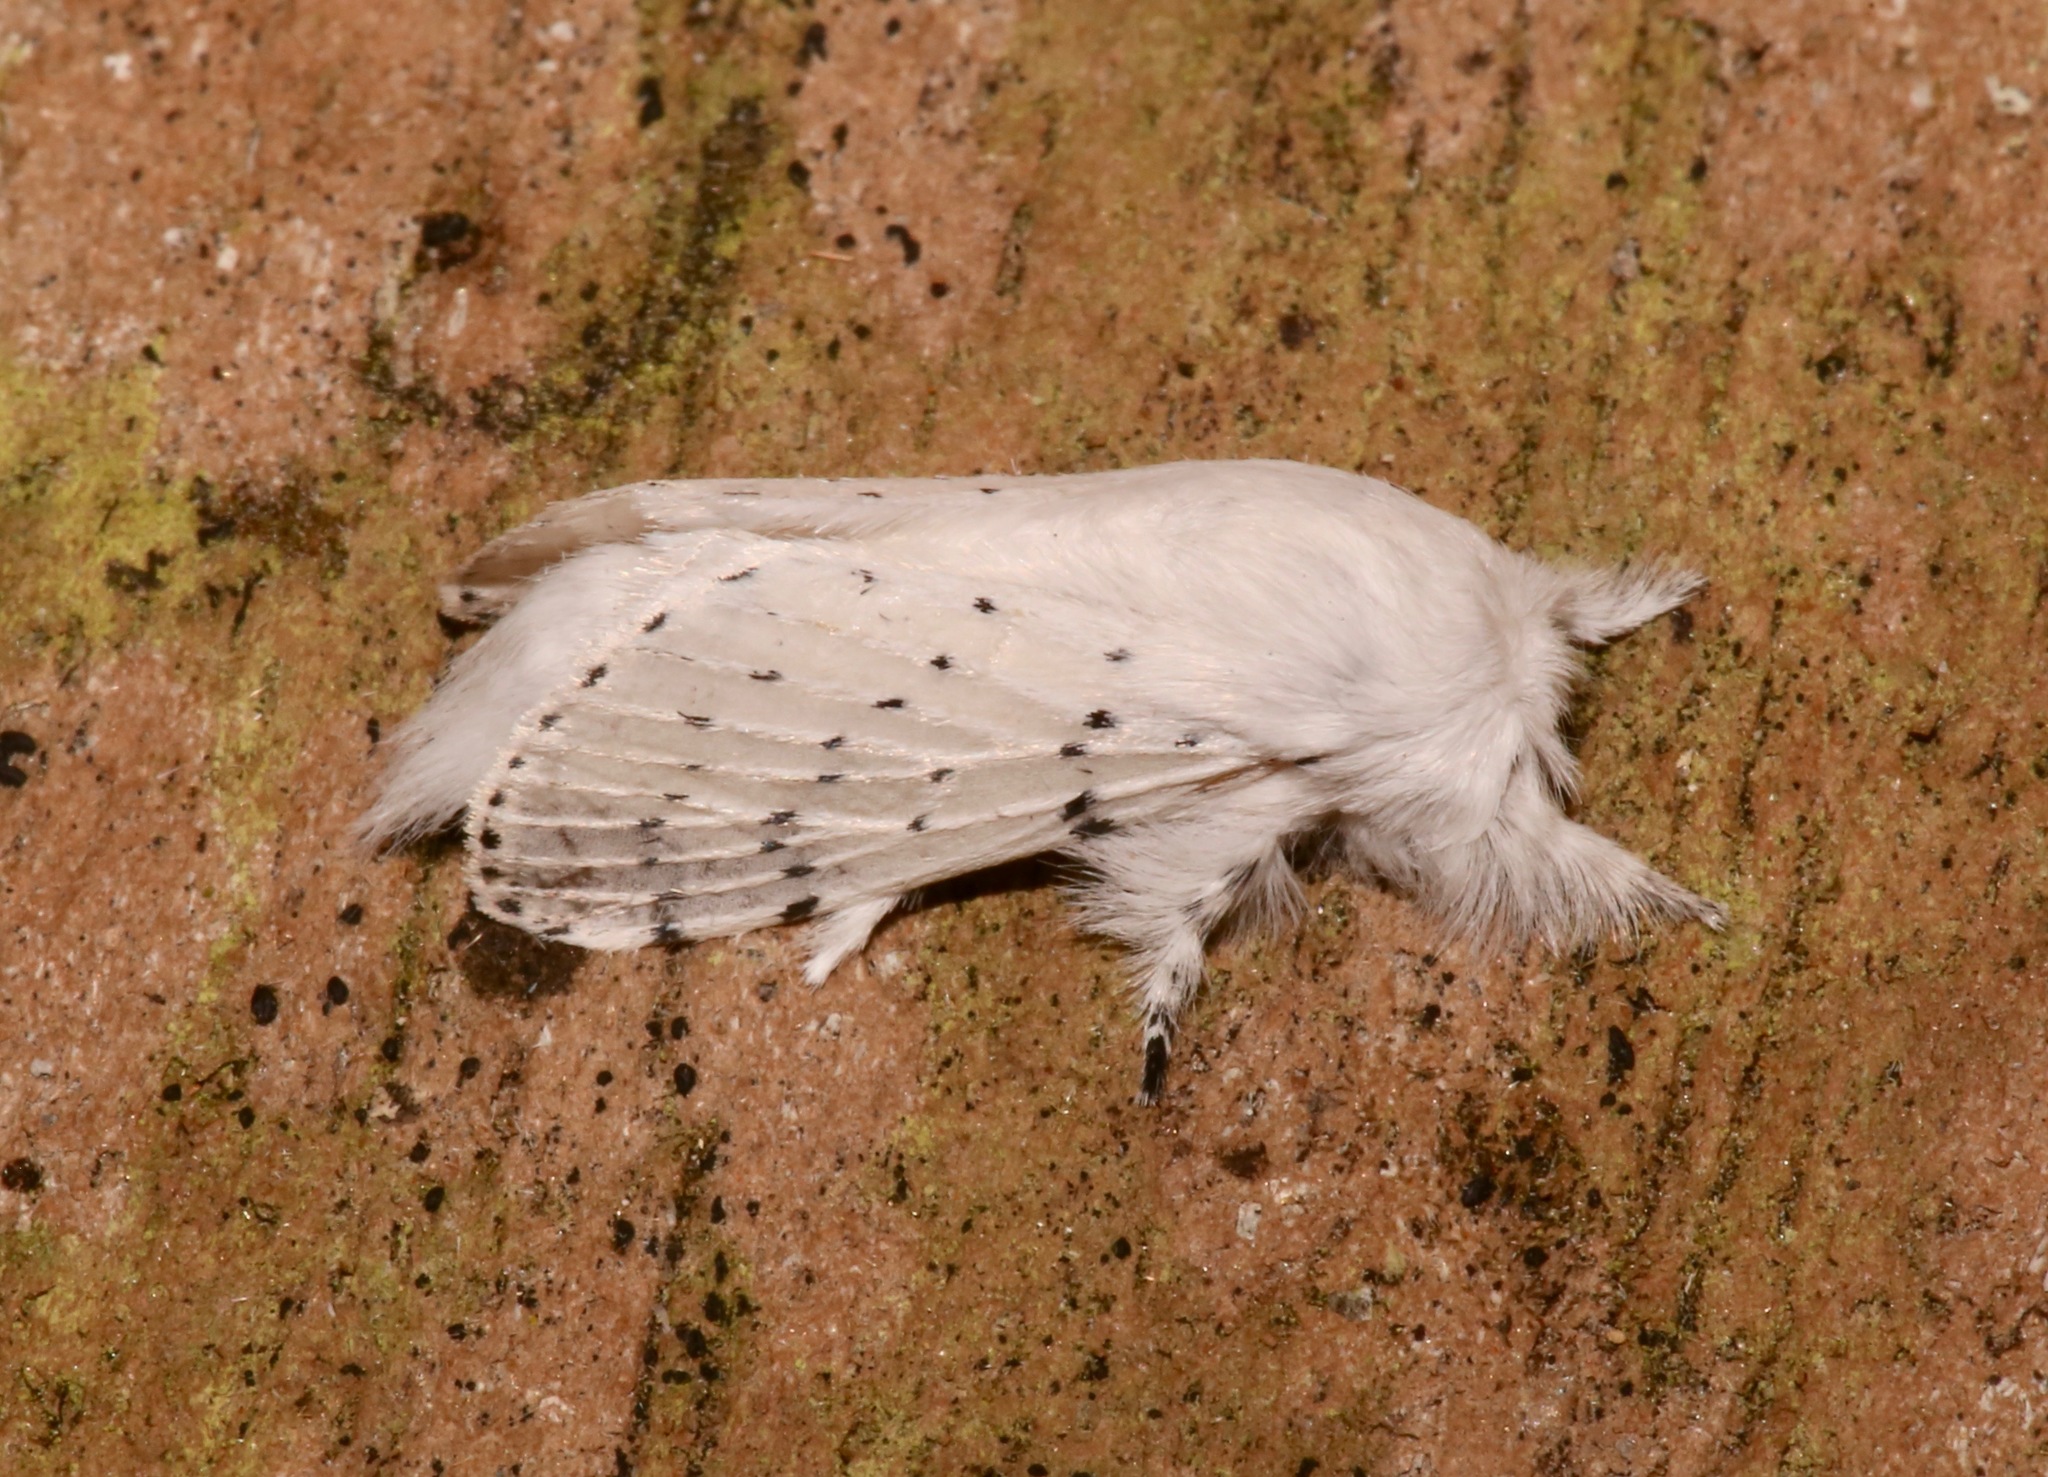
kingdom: Animalia
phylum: Arthropoda
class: Insecta
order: Lepidoptera
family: Lasiocampidae
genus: Artace
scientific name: Artace cribrarius
